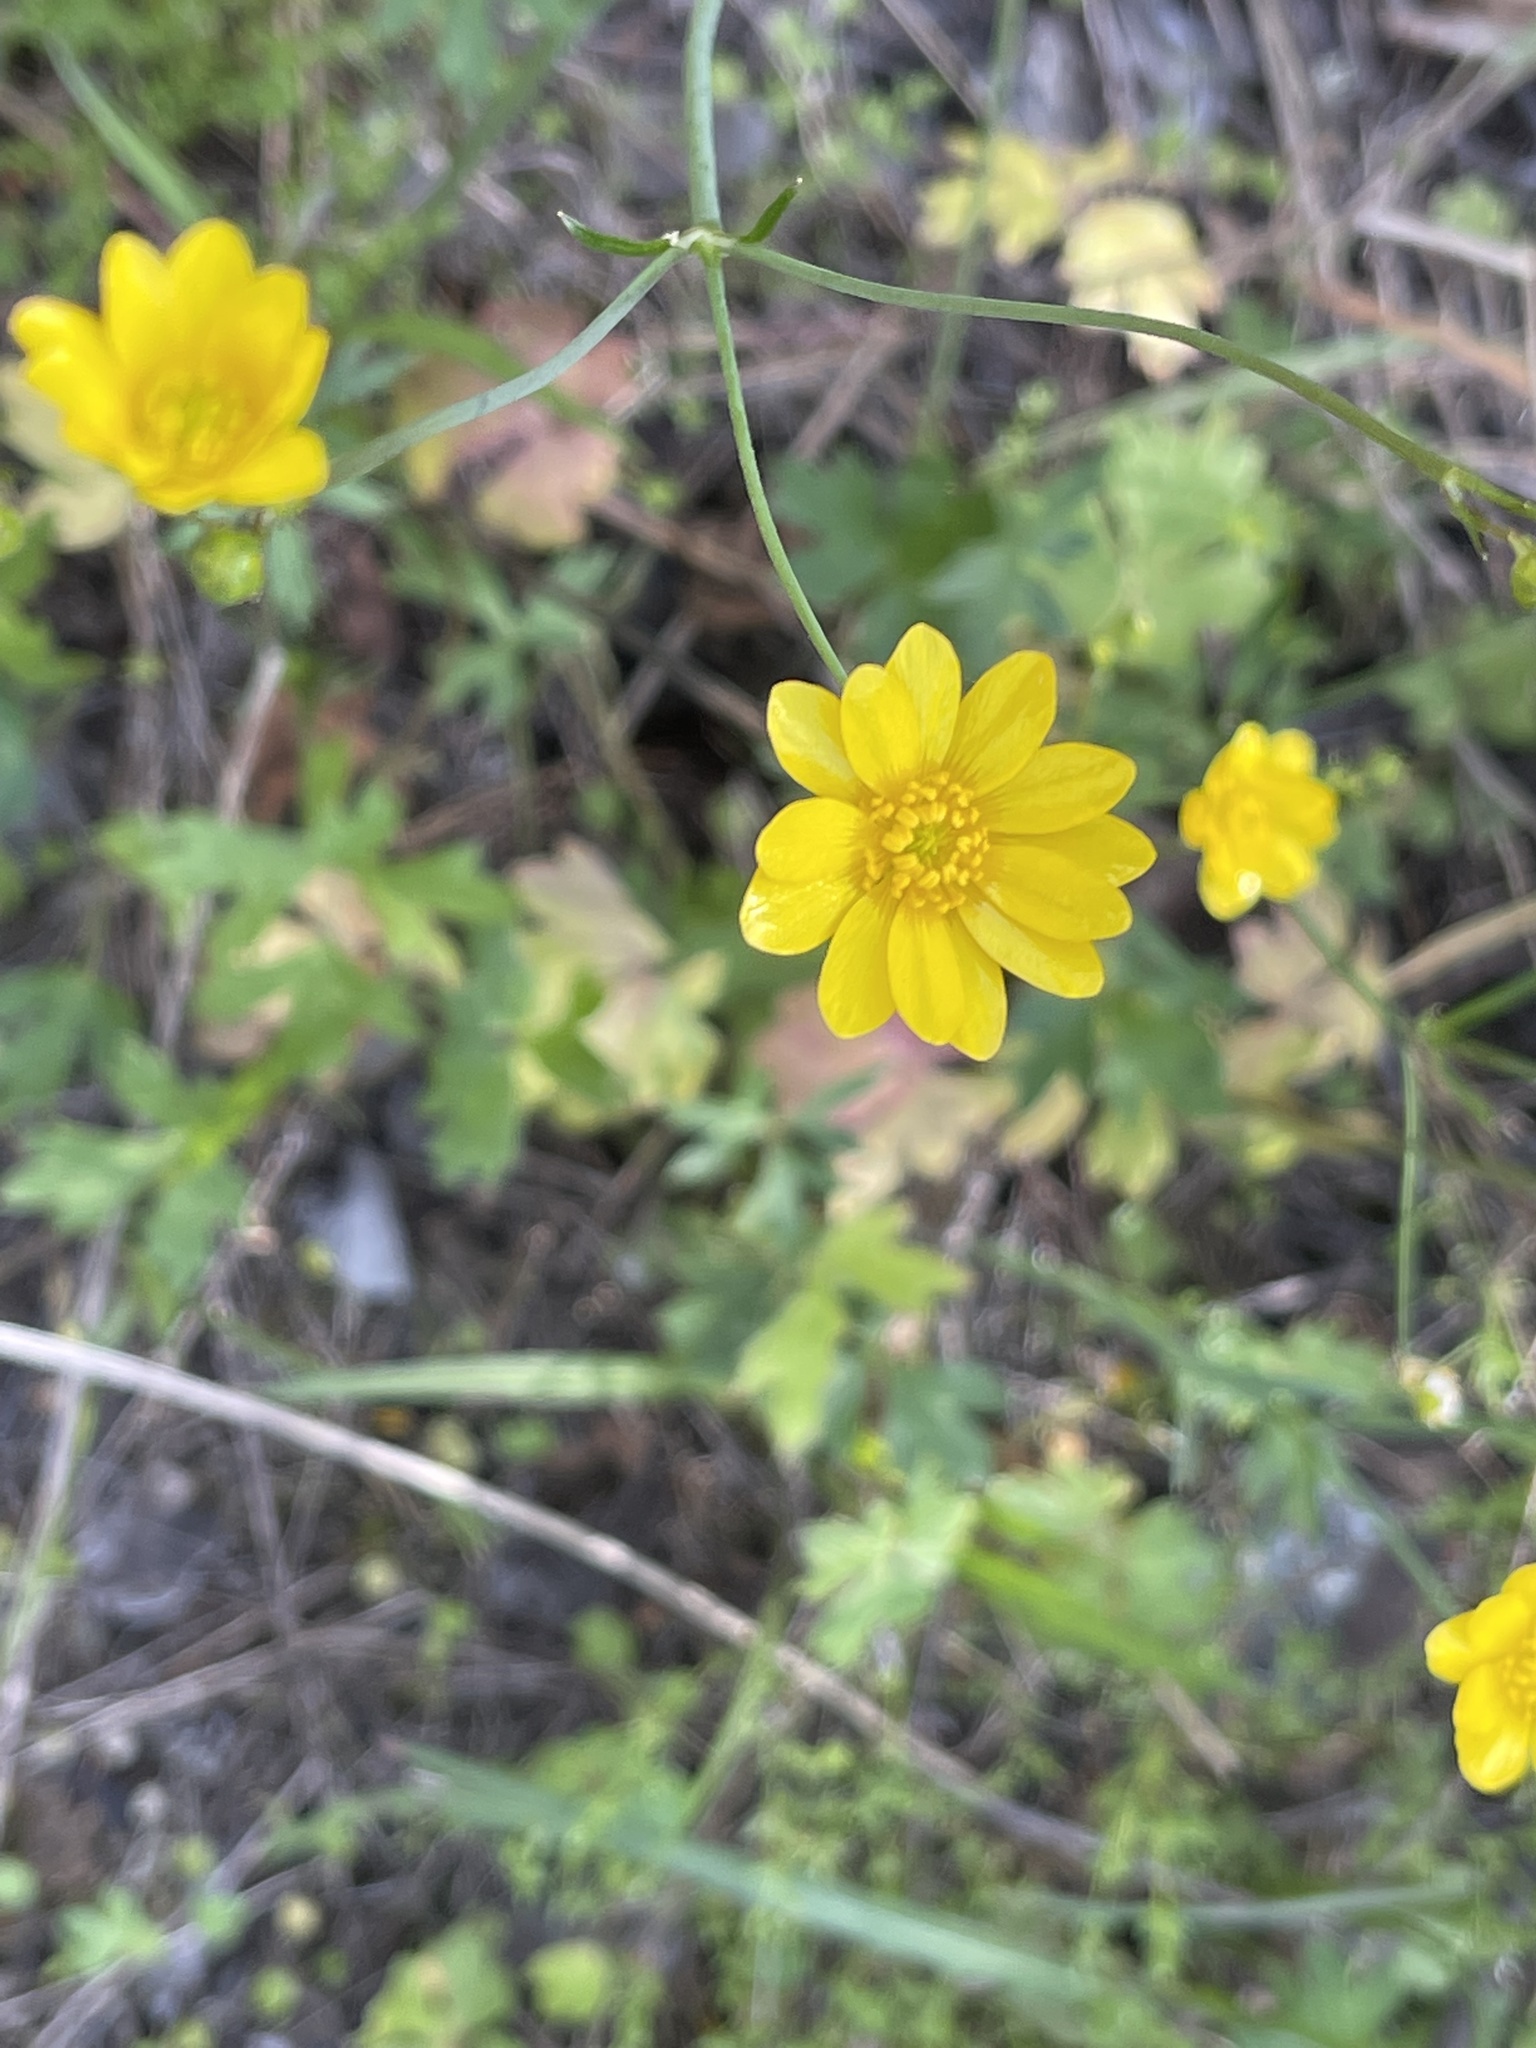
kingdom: Plantae
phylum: Tracheophyta
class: Magnoliopsida
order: Ranunculales
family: Ranunculaceae
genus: Ranunculus
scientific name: Ranunculus californicus
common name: California buttercup
